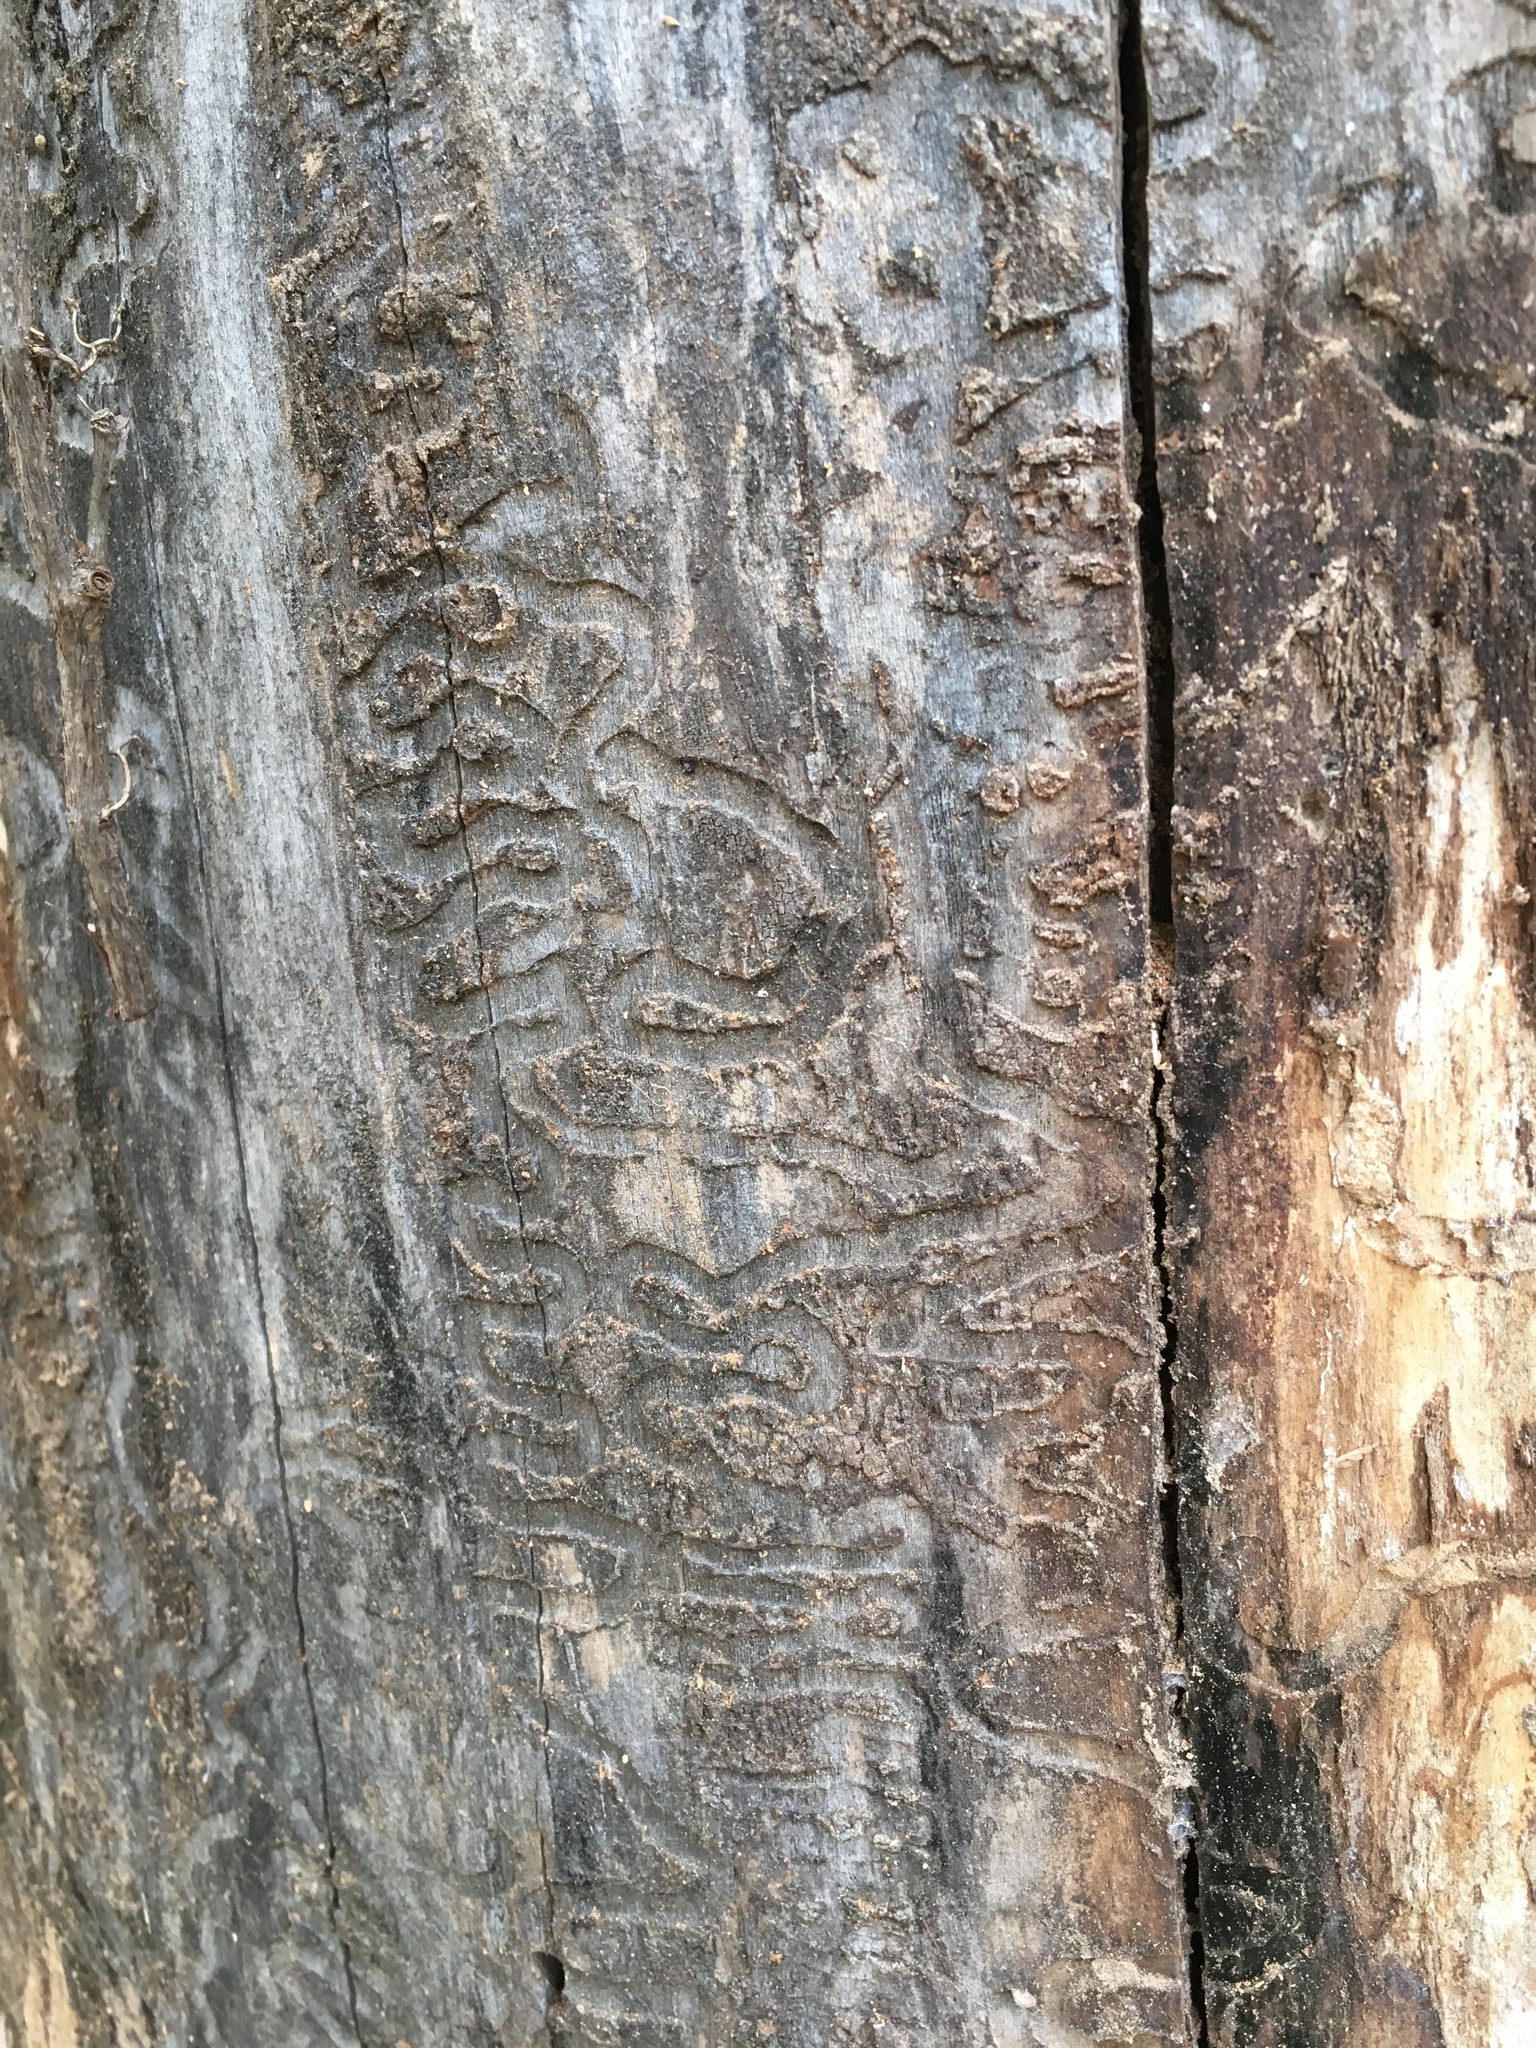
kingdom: Animalia
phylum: Arthropoda
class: Insecta
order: Coleoptera
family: Buprestidae
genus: Agrilus
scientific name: Agrilus planipennis
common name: Emerald ash borer
